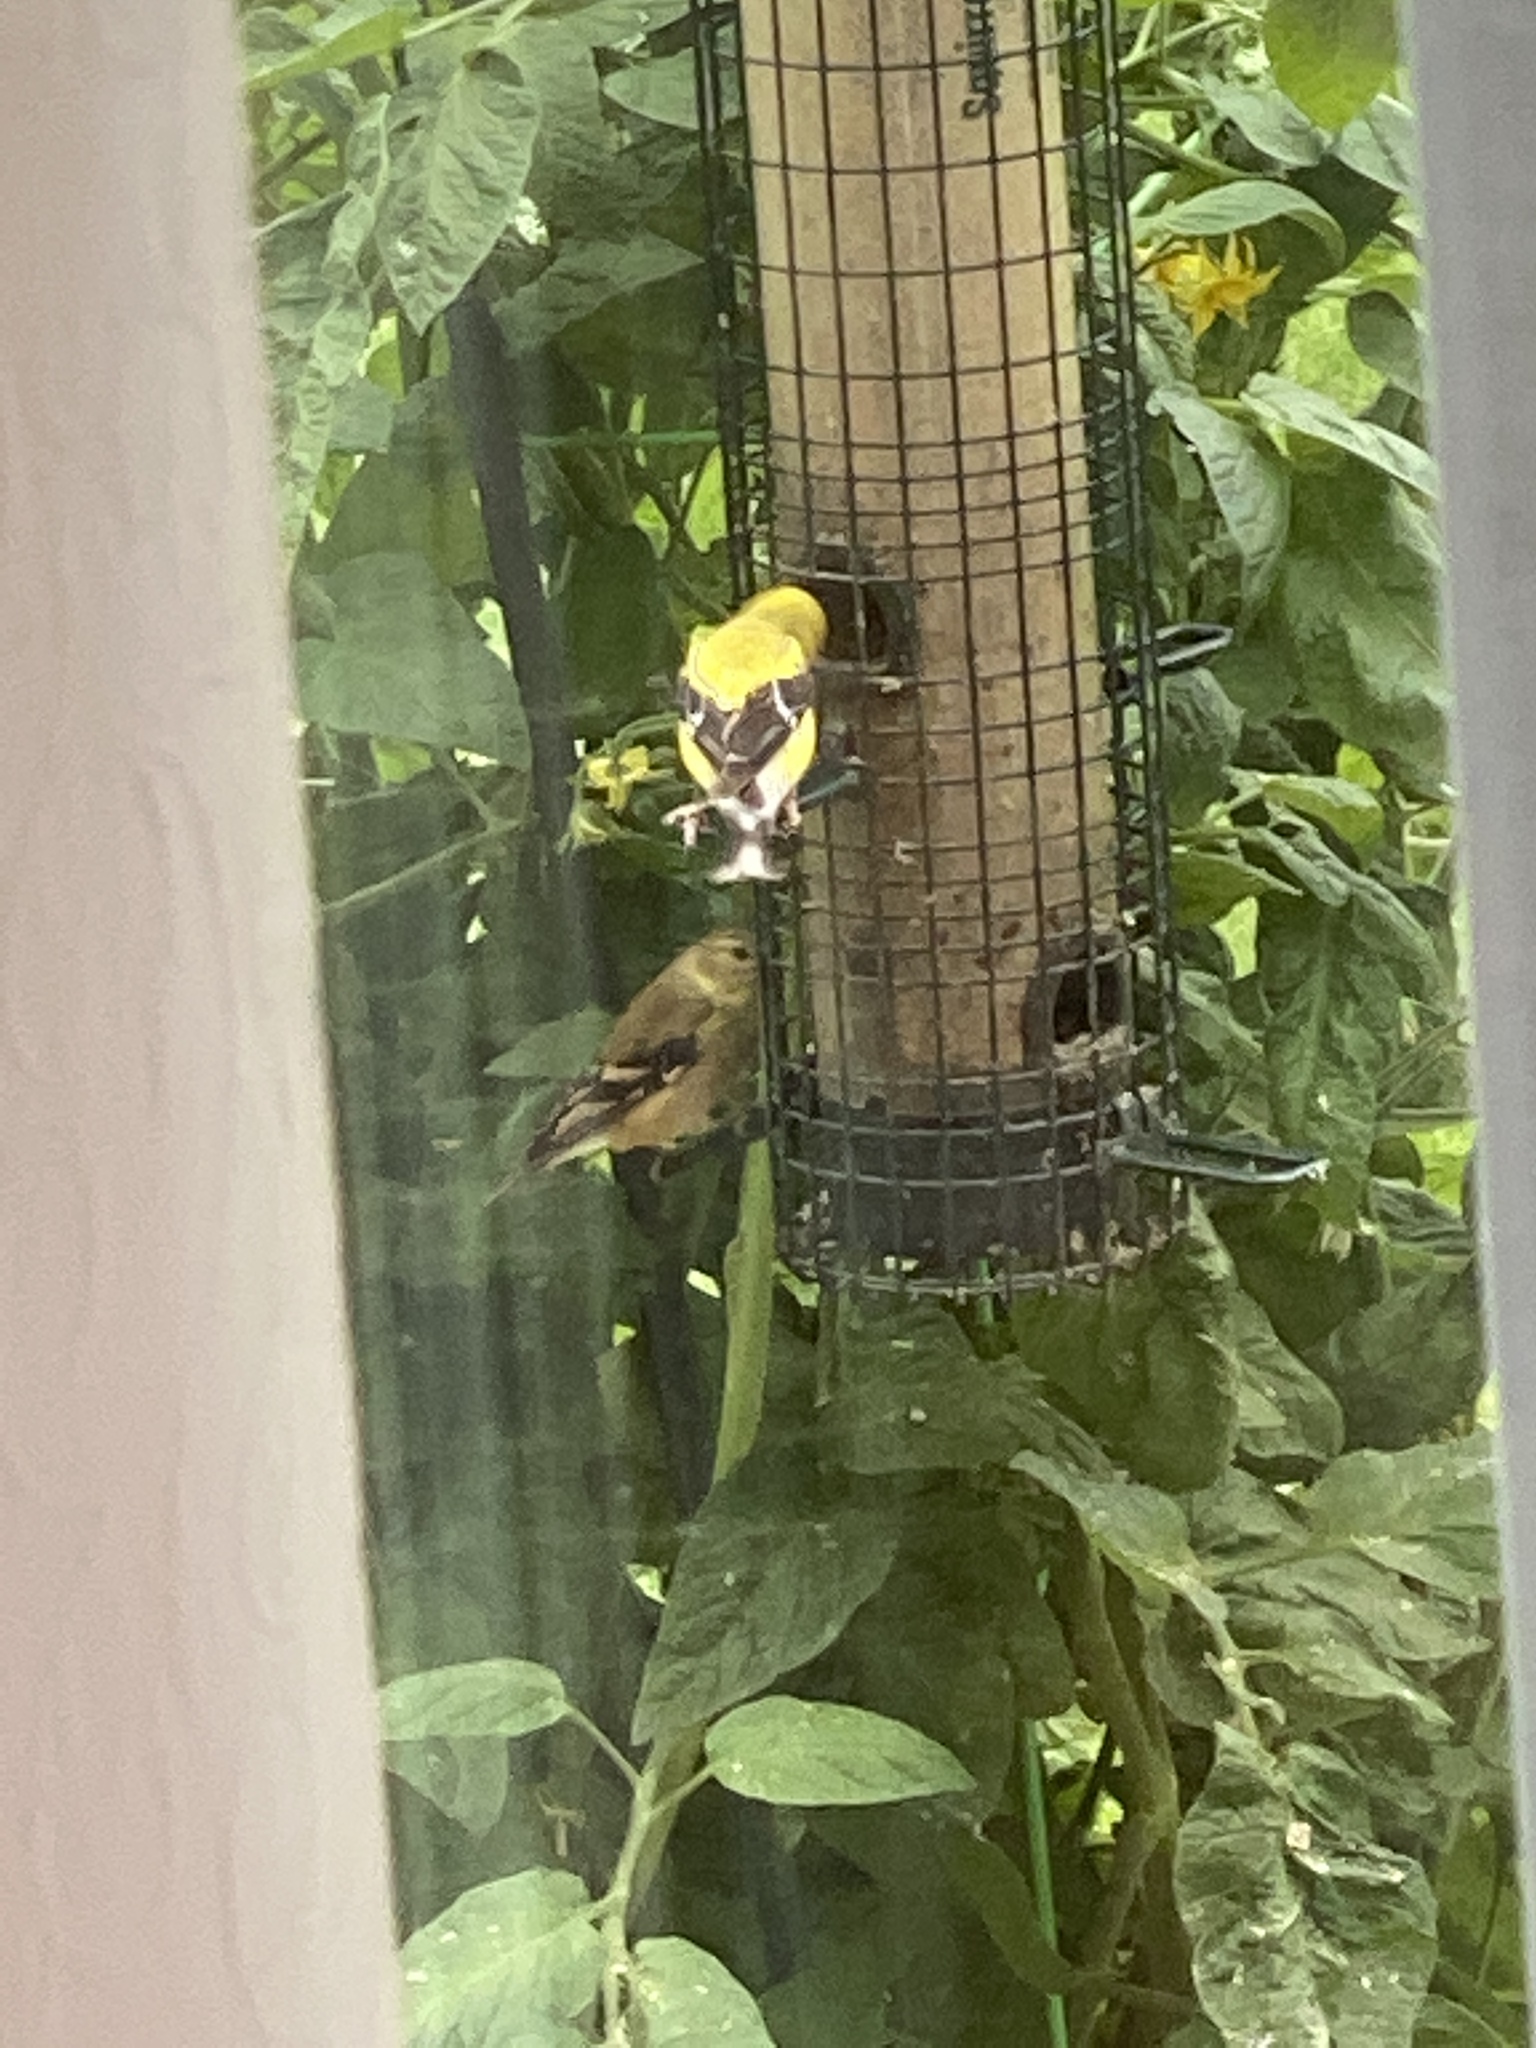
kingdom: Animalia
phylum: Chordata
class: Aves
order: Passeriformes
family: Fringillidae
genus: Spinus
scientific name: Spinus tristis
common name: American goldfinch
